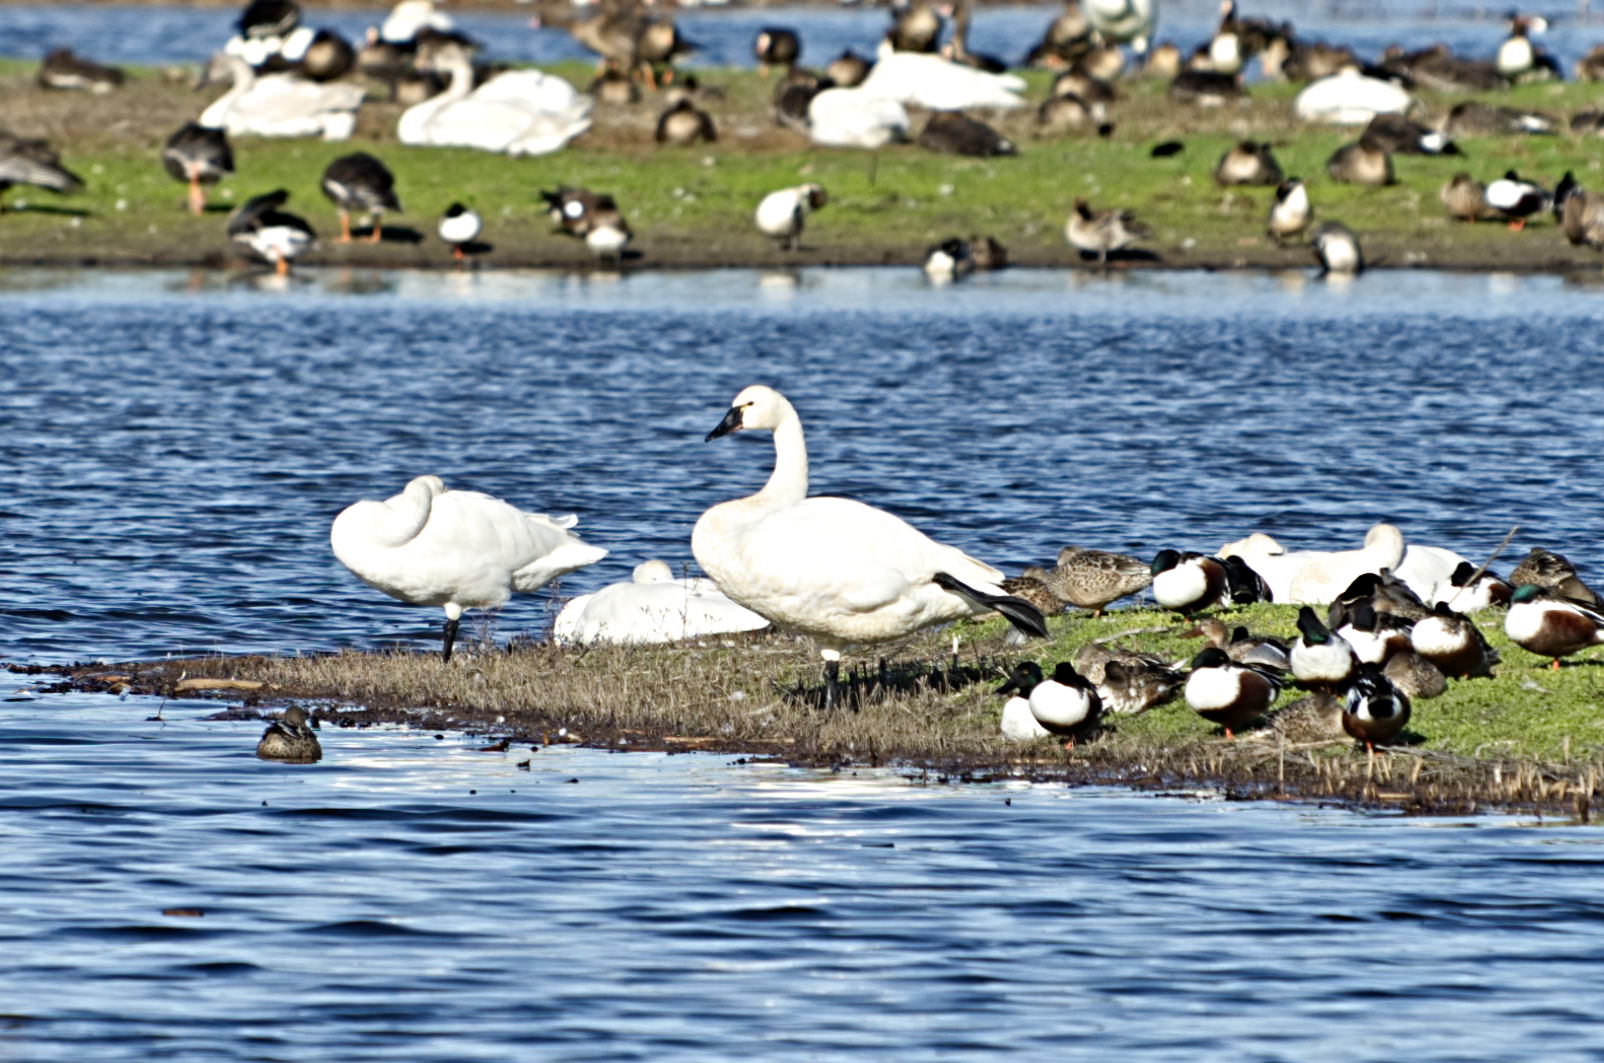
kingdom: Animalia
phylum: Chordata
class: Aves
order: Anseriformes
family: Anatidae
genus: Cygnus
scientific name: Cygnus columbianus
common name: Tundra swan
